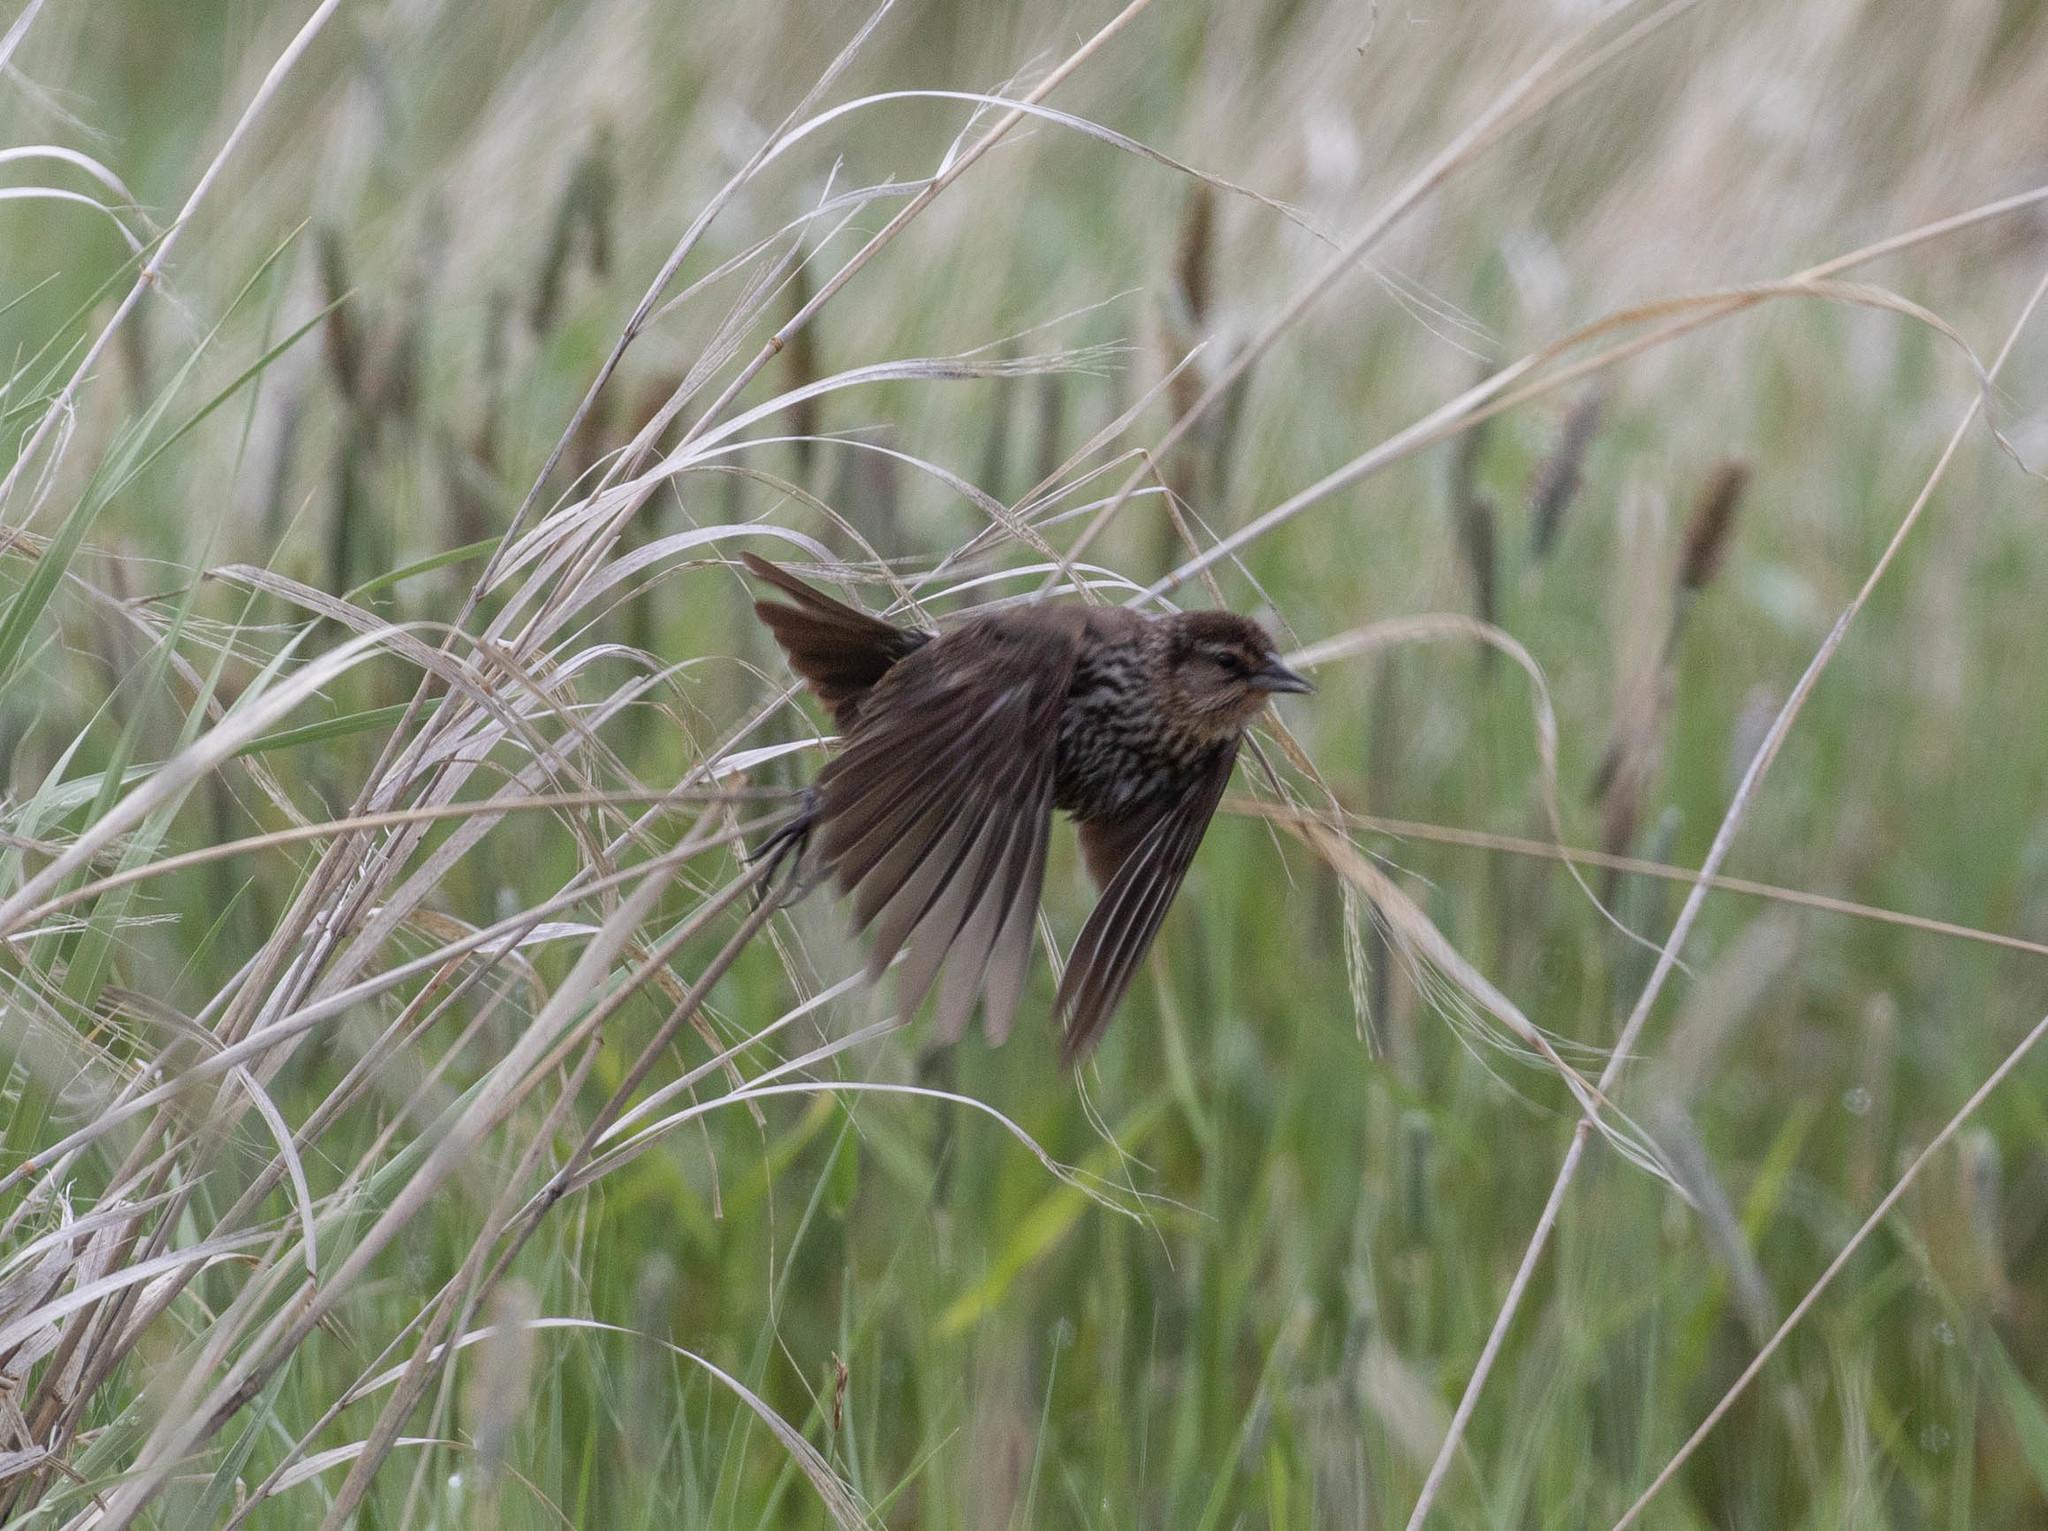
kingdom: Animalia
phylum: Chordata
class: Aves
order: Passeriformes
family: Icteridae
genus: Agelaius
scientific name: Agelaius phoeniceus
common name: Red-winged blackbird
